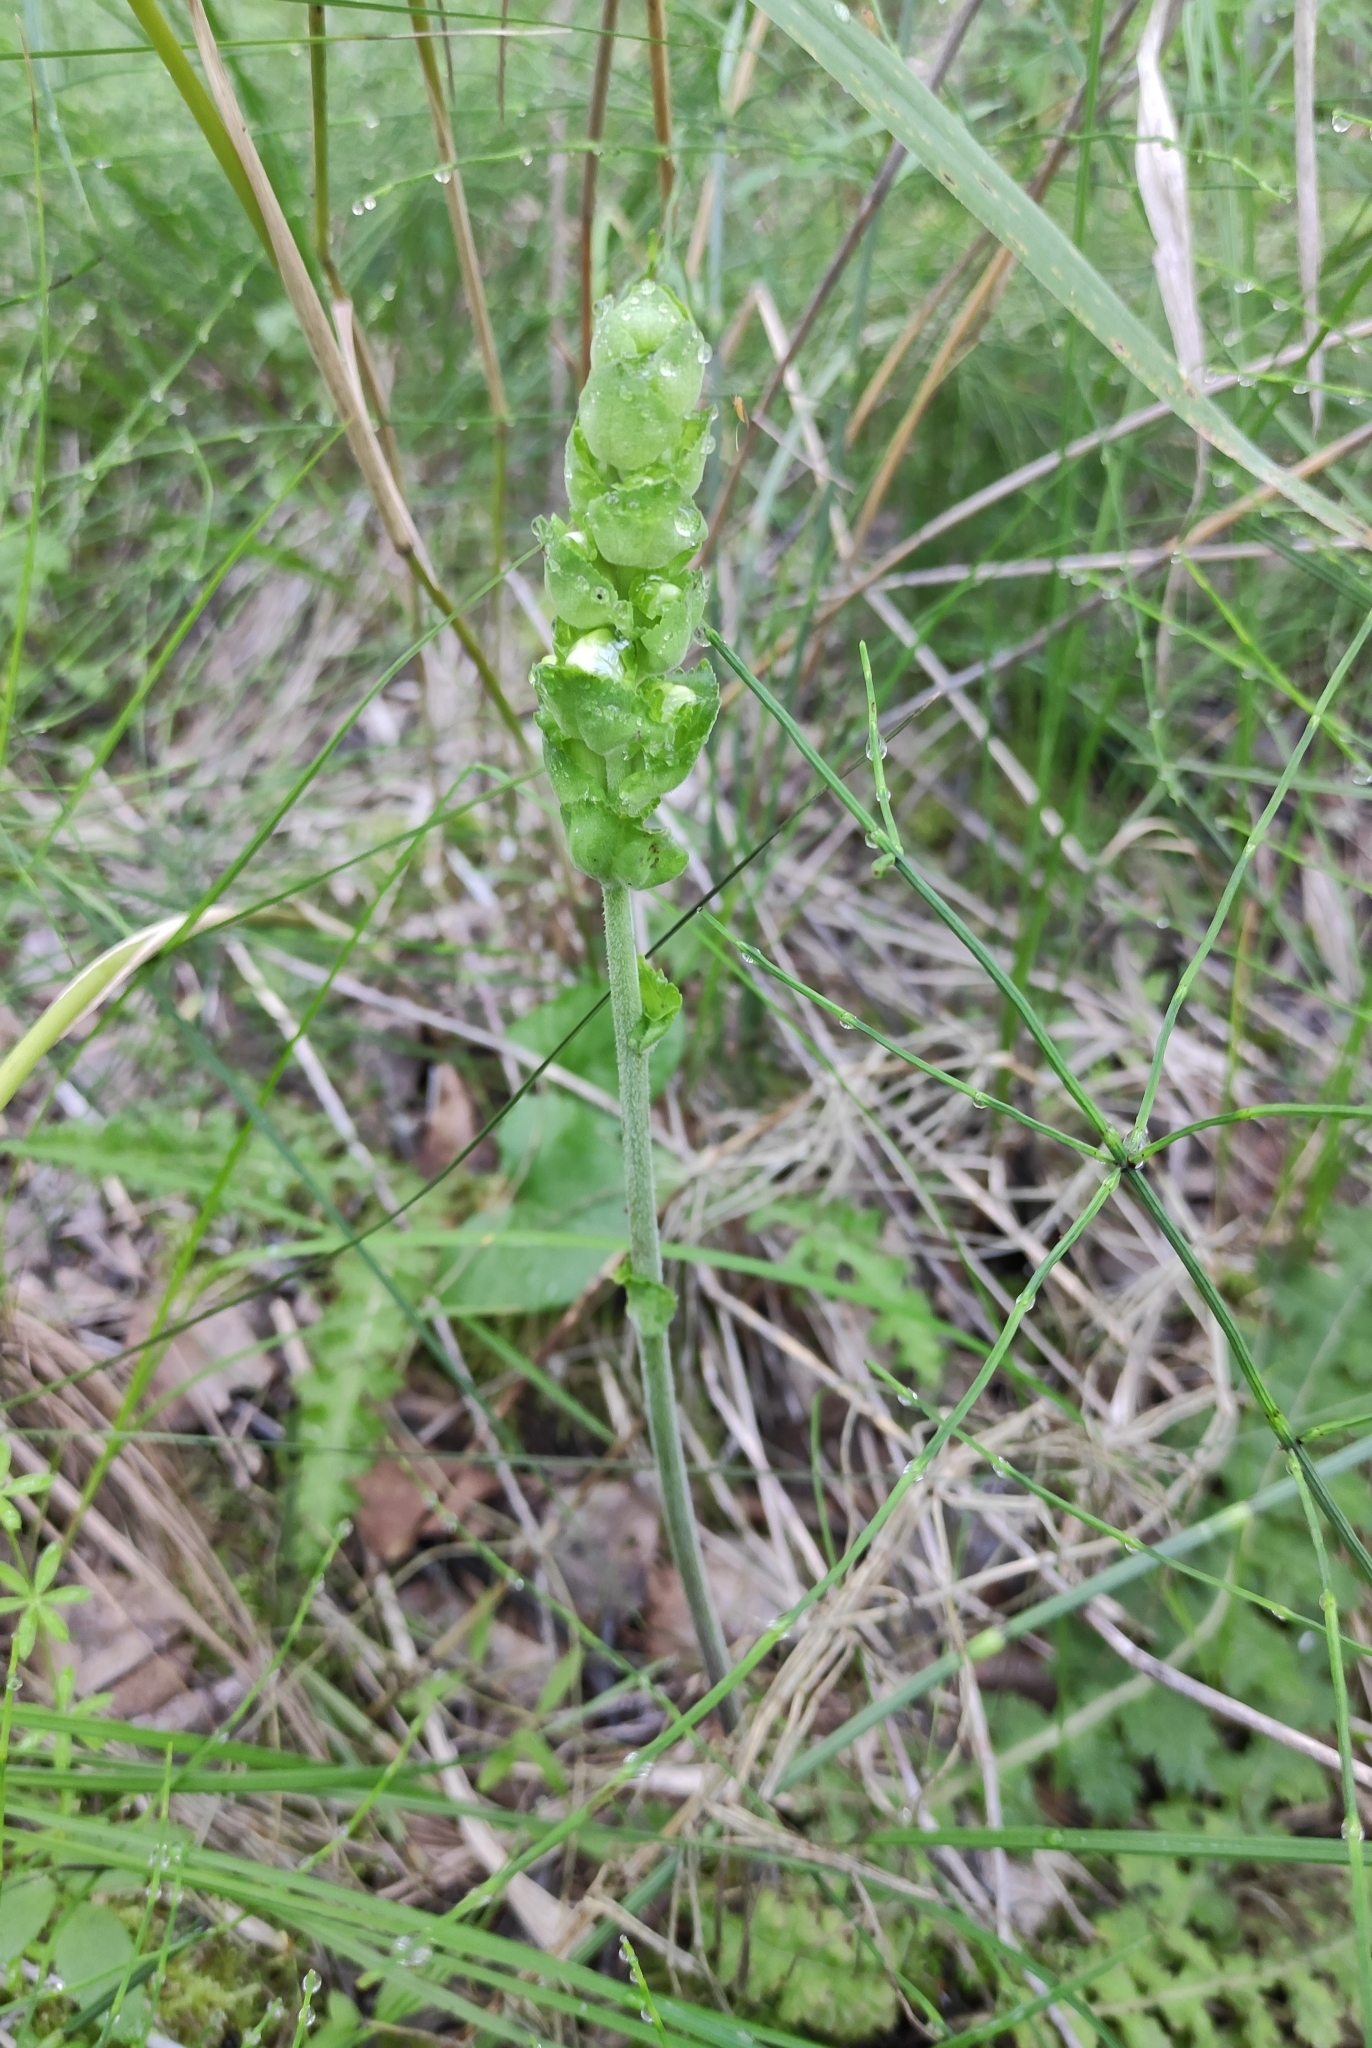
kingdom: Plantae
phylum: Tracheophyta
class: Magnoliopsida
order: Lamiales
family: Orobanchaceae
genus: Pedicularis
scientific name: Pedicularis sceptrum-carolinum
